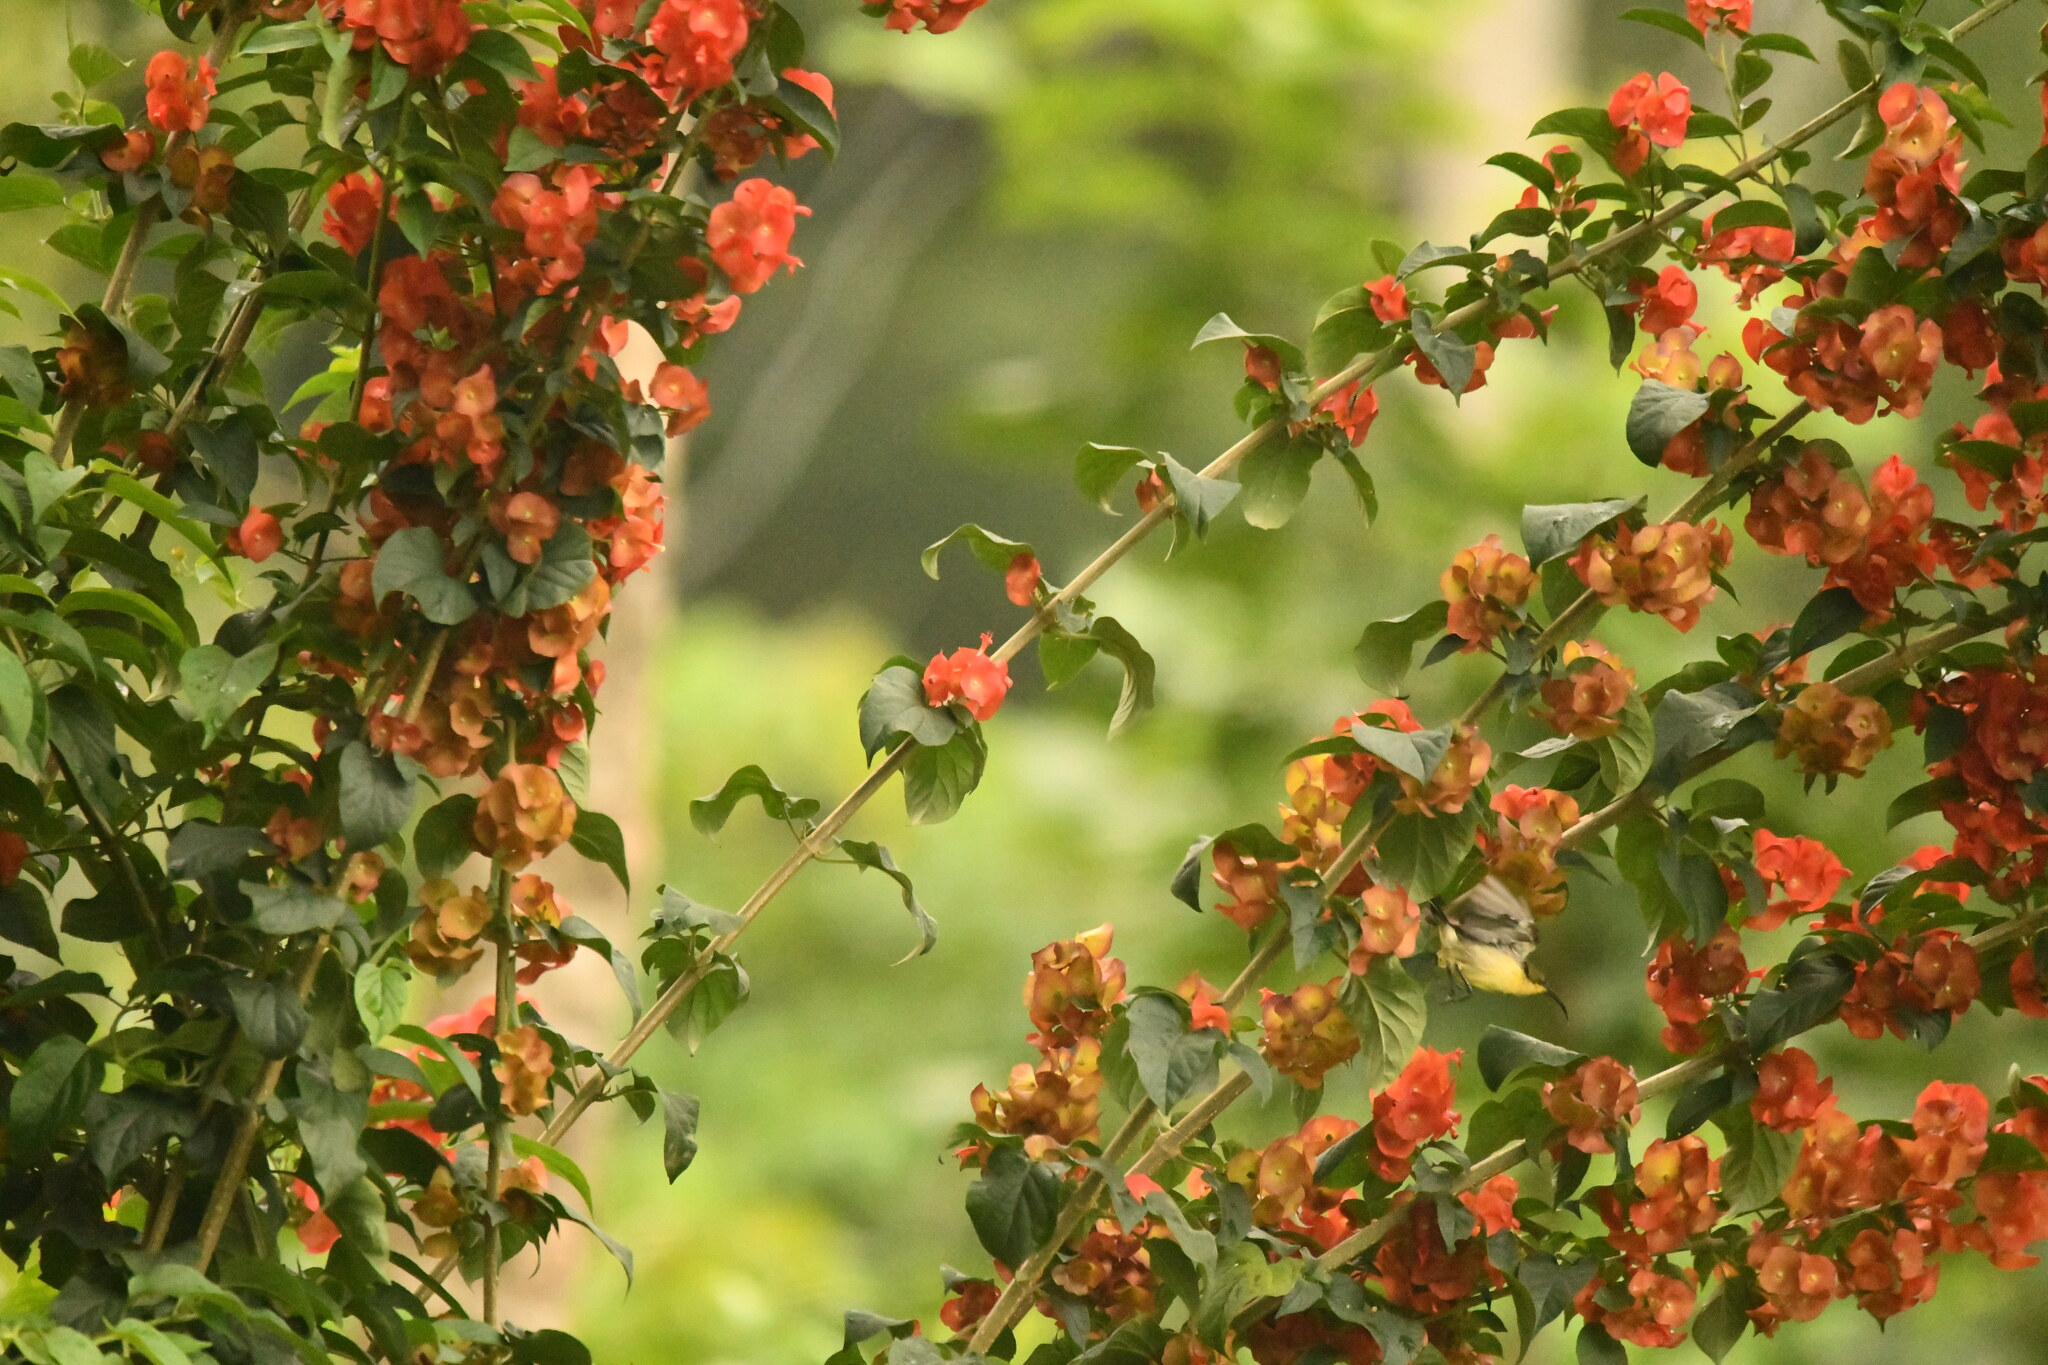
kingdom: Plantae
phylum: Tracheophyta
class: Magnoliopsida
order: Lamiales
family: Lamiaceae
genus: Holmskioldia
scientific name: Holmskioldia sanguinea
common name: Chinese hatplant
